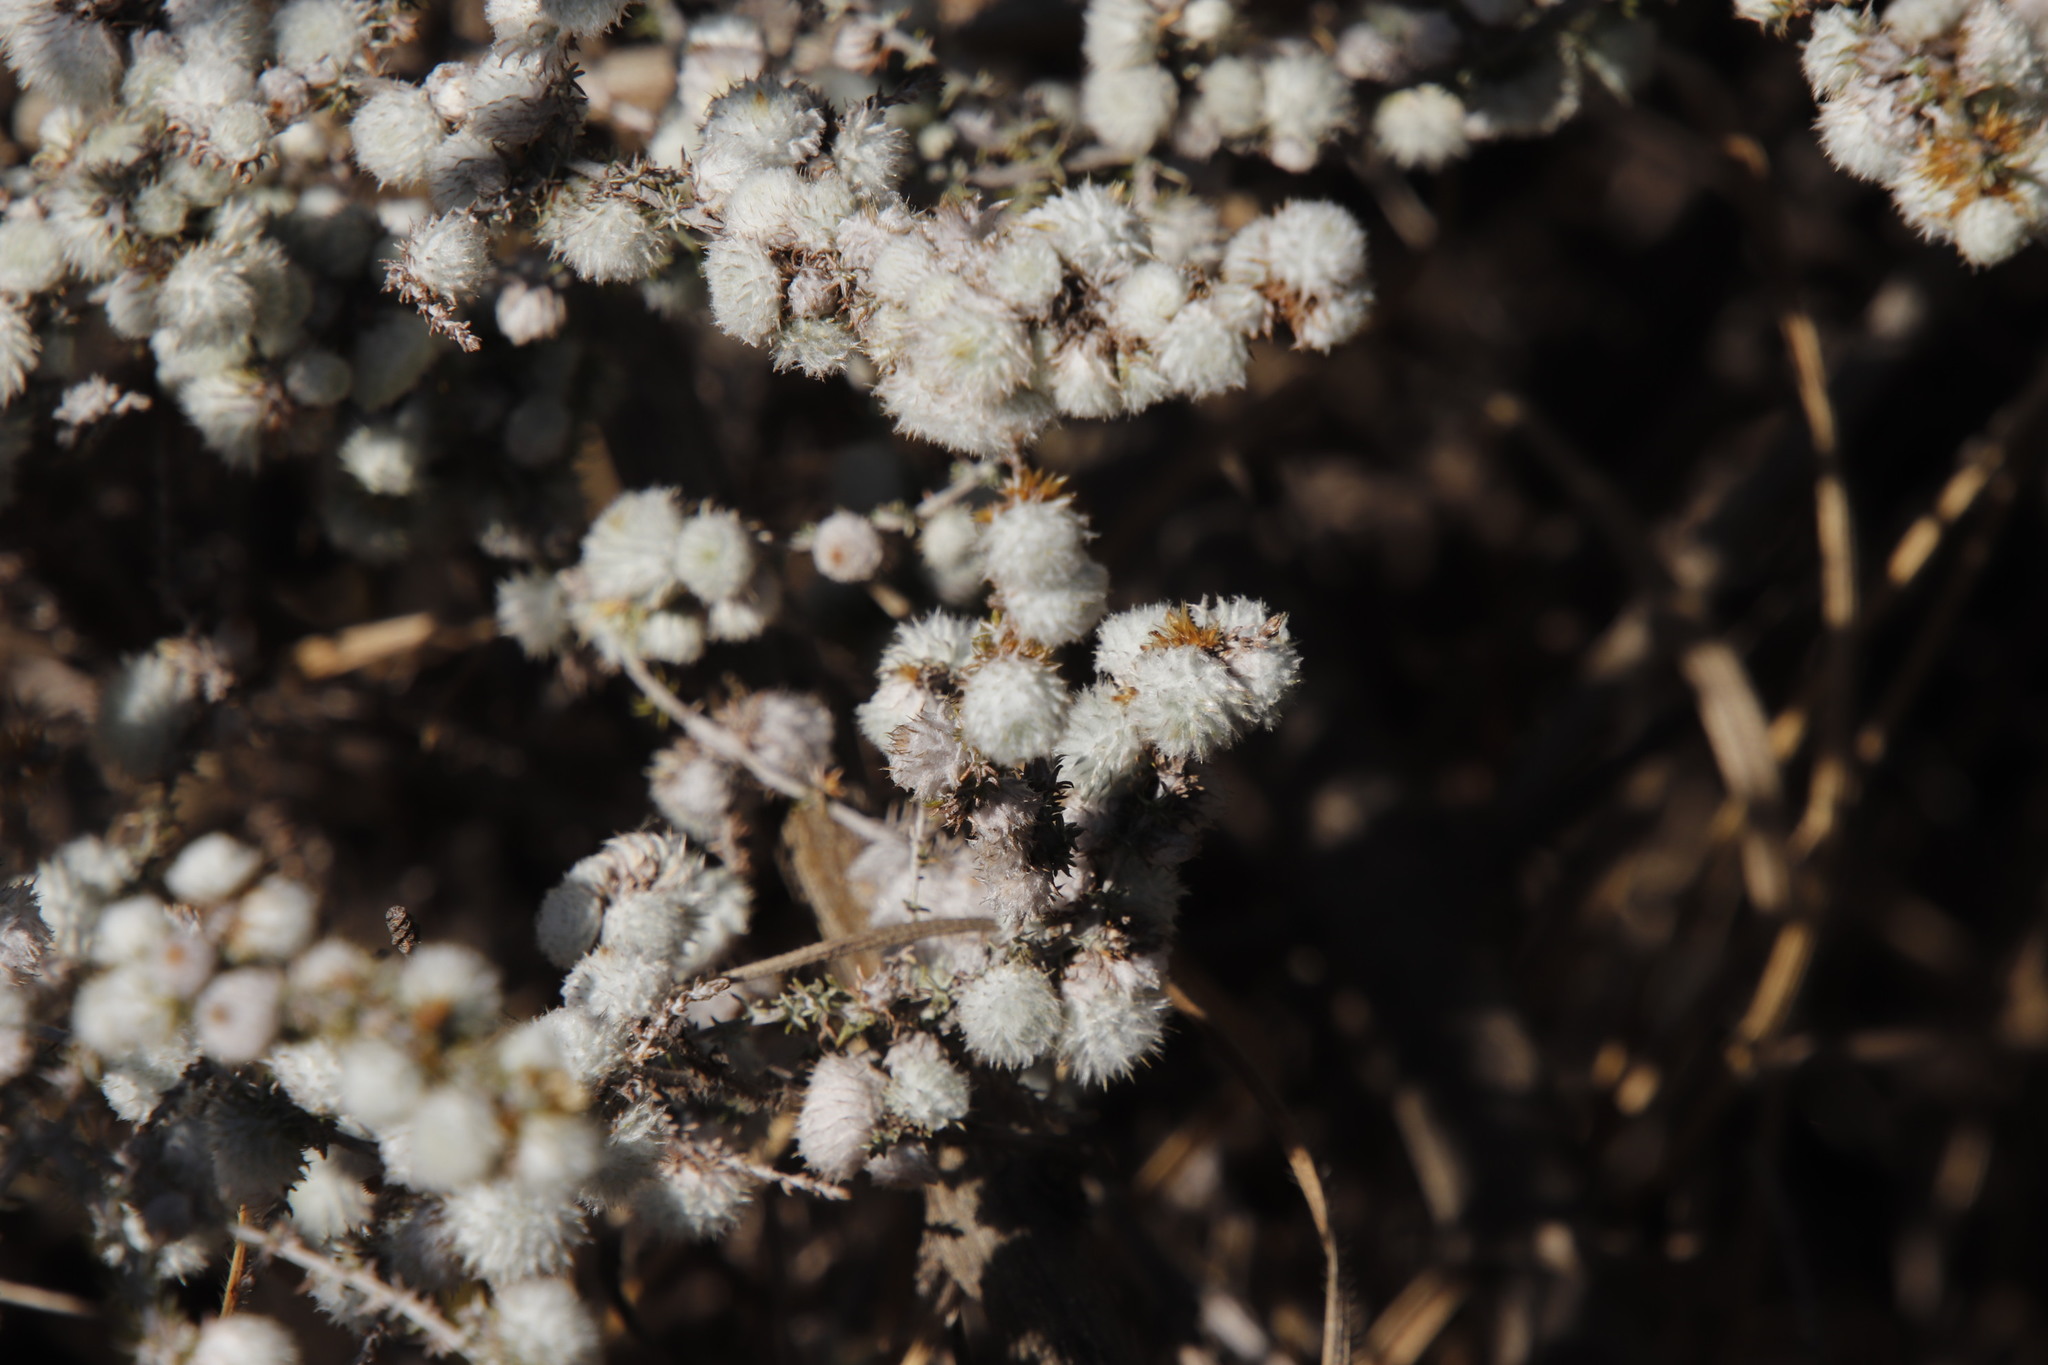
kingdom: Animalia
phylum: Arthropoda
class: Insecta
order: Diptera
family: Cecidomyiidae
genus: Schizomyia
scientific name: Schizomyia scheppigi
